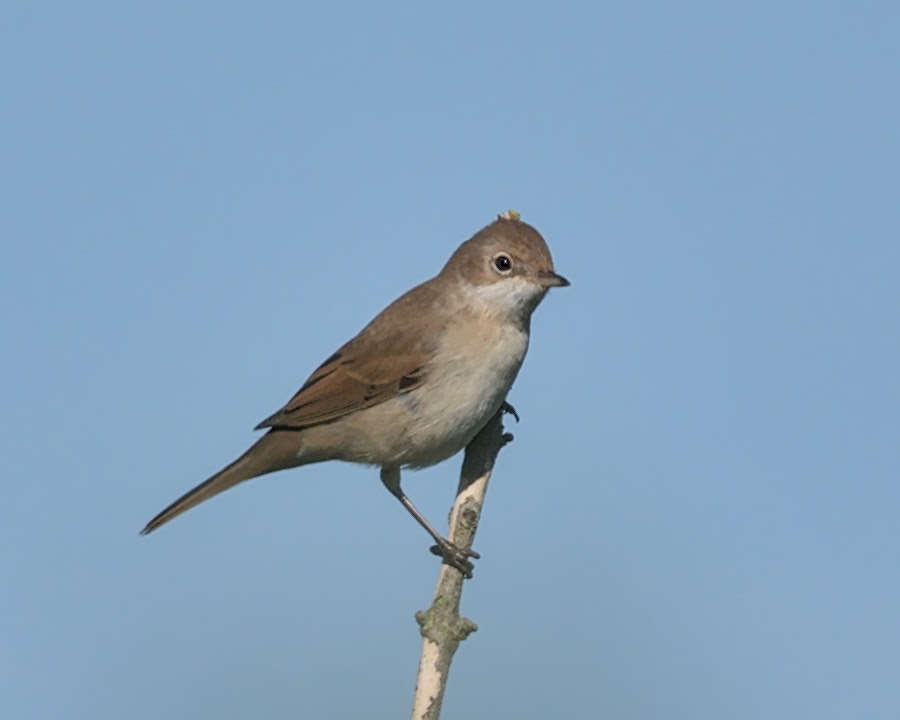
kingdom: Animalia
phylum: Chordata
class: Aves
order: Passeriformes
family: Sylviidae
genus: Sylvia
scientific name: Sylvia curruca
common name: Lesser whitethroat
